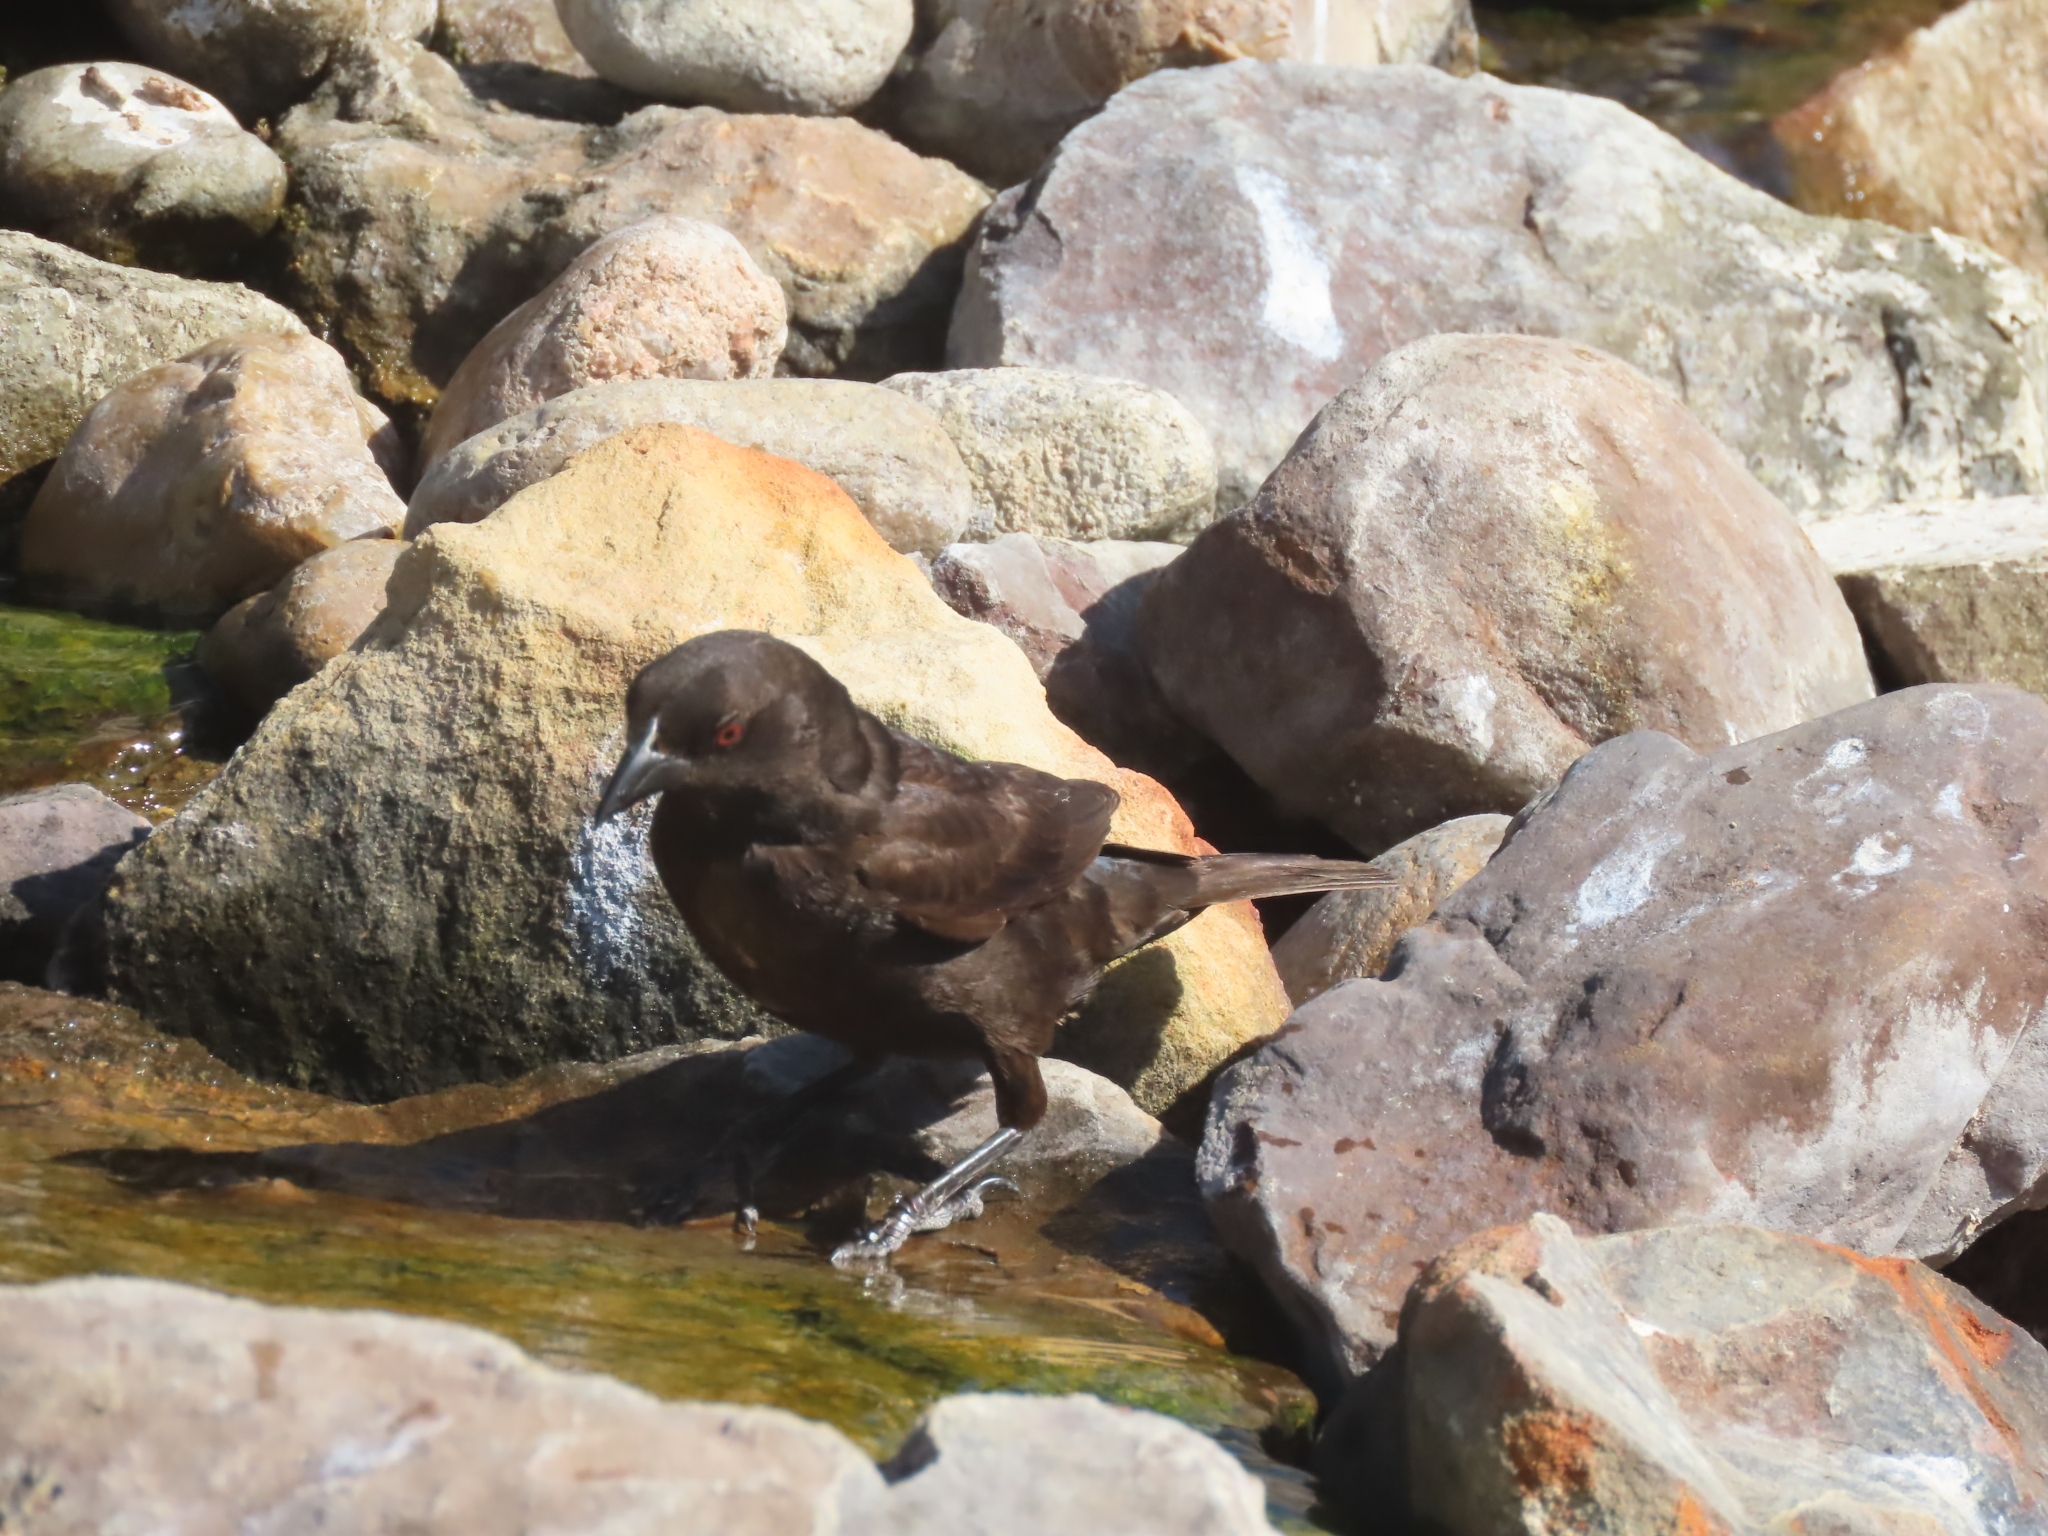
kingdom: Animalia
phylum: Chordata
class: Aves
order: Passeriformes
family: Icteridae
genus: Molothrus
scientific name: Molothrus aeneus
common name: Bronzed cowbird
